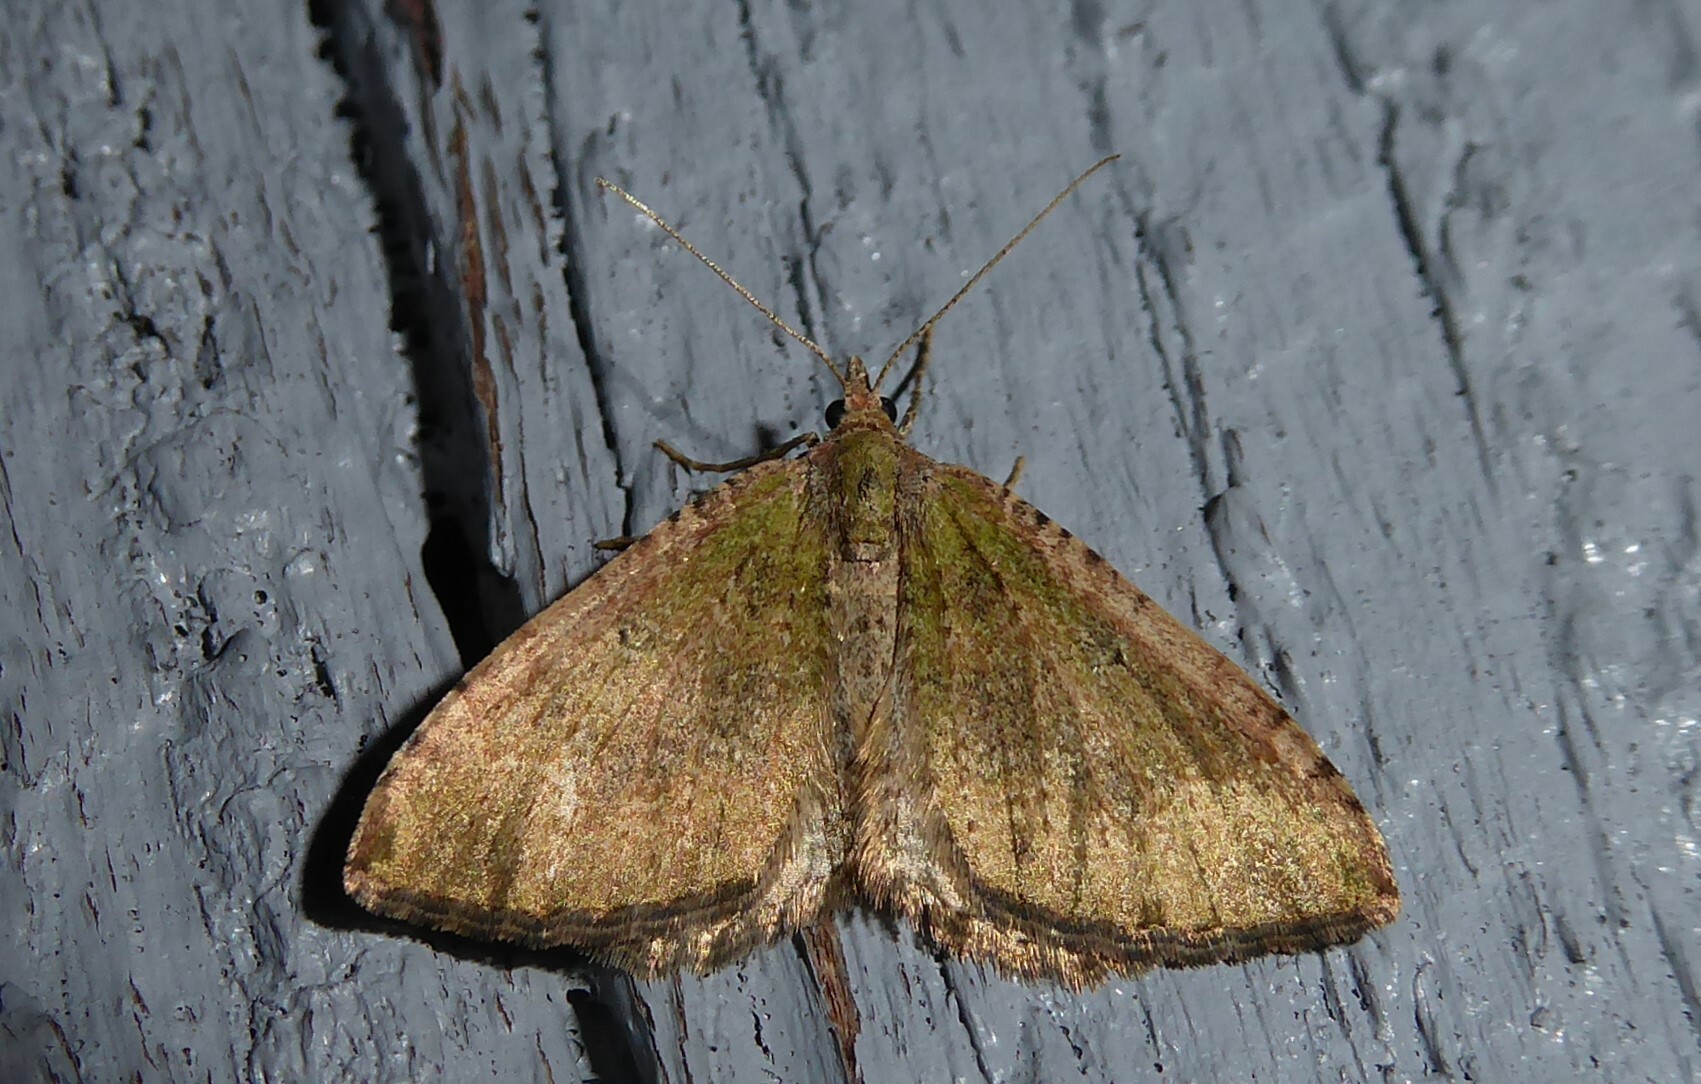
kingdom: Animalia
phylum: Arthropoda
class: Insecta
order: Lepidoptera
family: Geometridae
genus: Epyaxa
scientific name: Epyaxa rosearia
